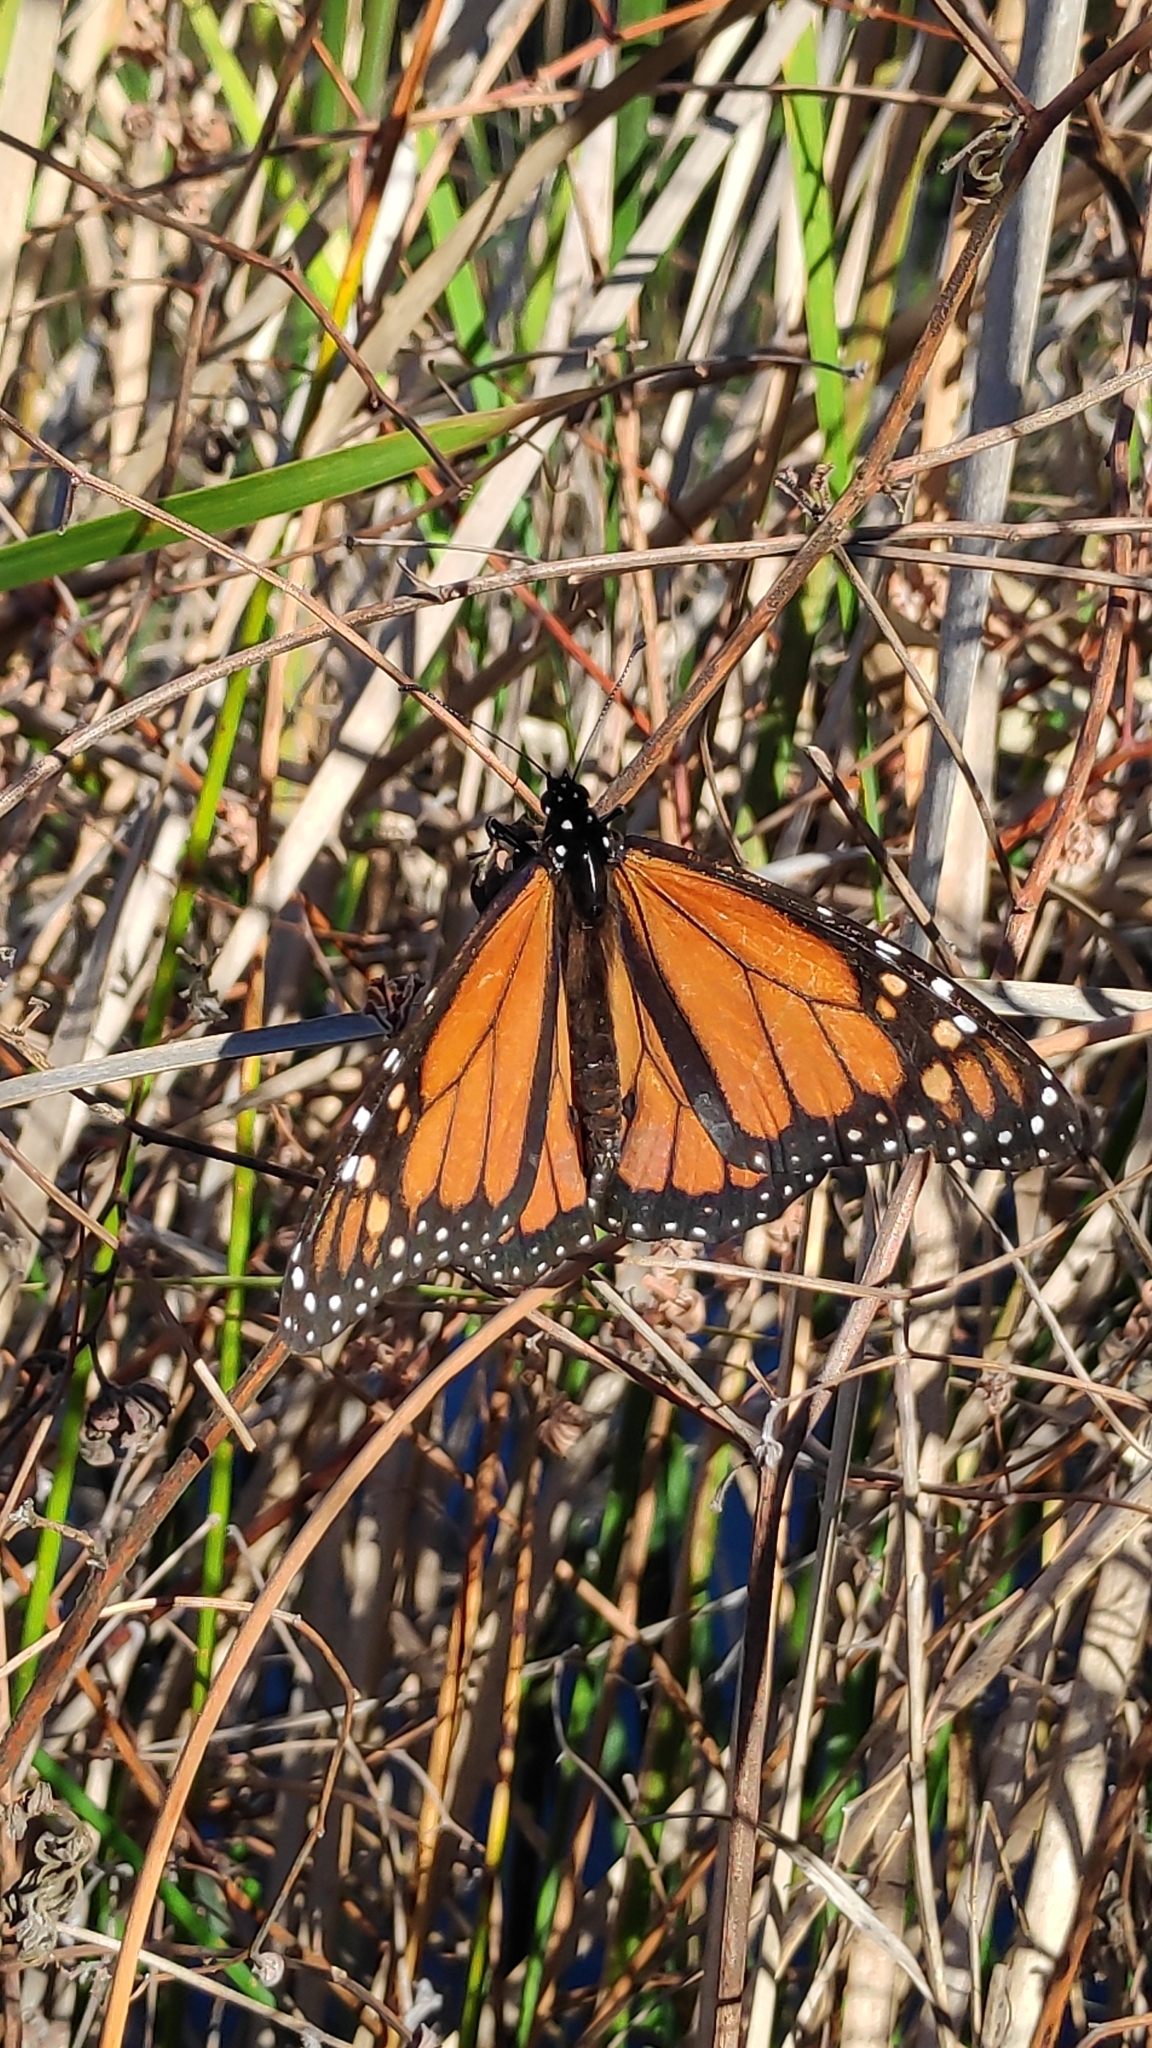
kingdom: Animalia
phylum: Arthropoda
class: Insecta
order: Lepidoptera
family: Nymphalidae
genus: Danaus
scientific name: Danaus plexippus
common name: Monarch
